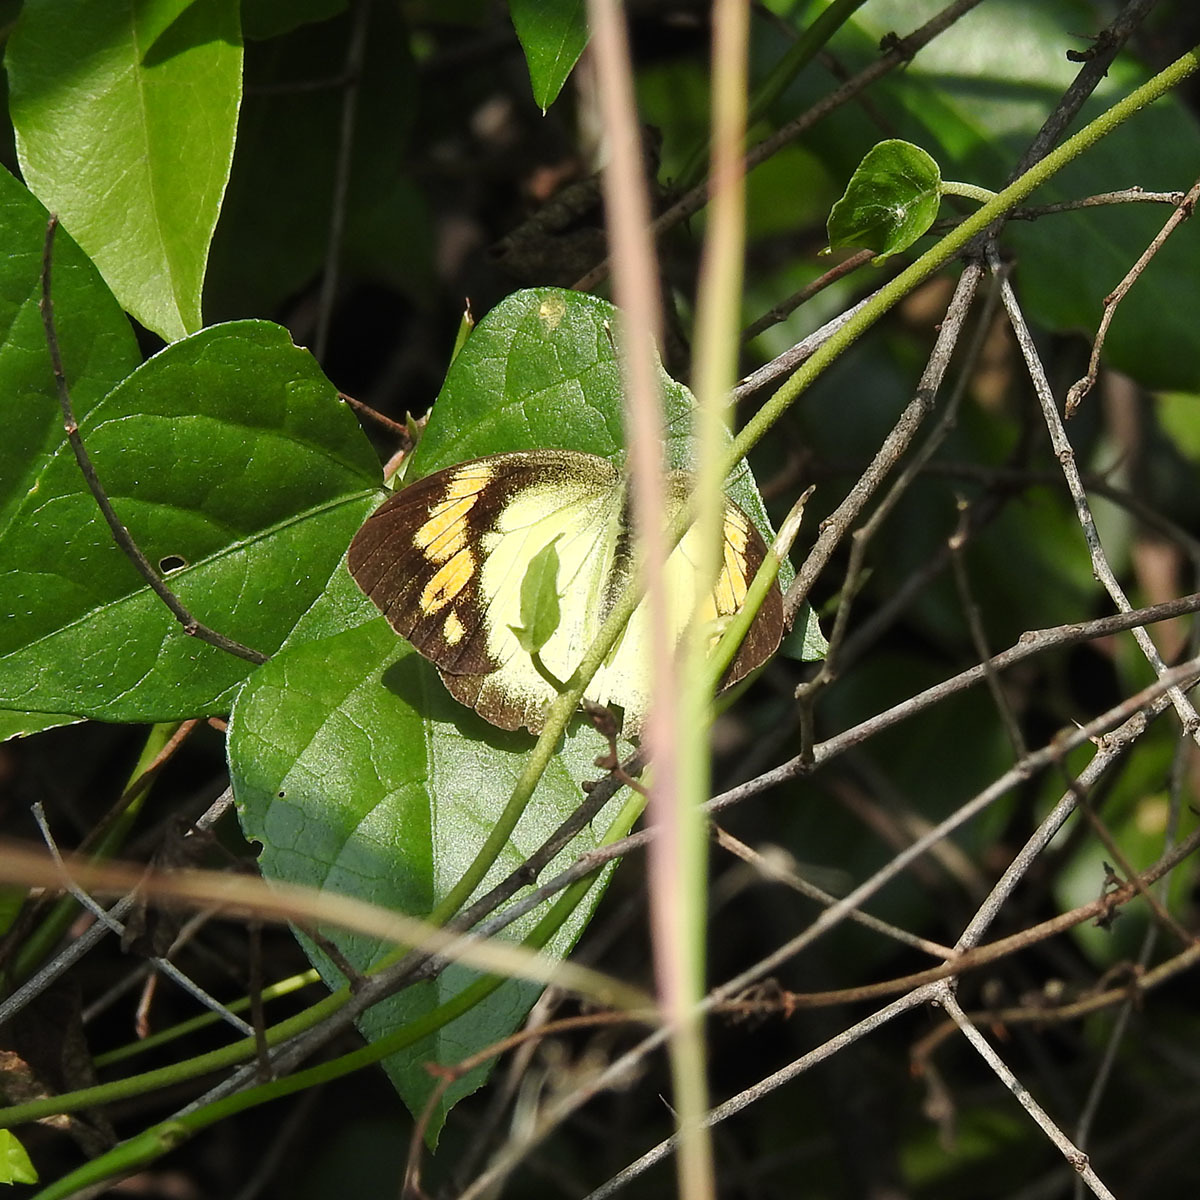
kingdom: Animalia
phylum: Arthropoda
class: Insecta
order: Lepidoptera
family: Pieridae
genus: Ixias
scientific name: Ixias pyrene
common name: Yellow orange tip
